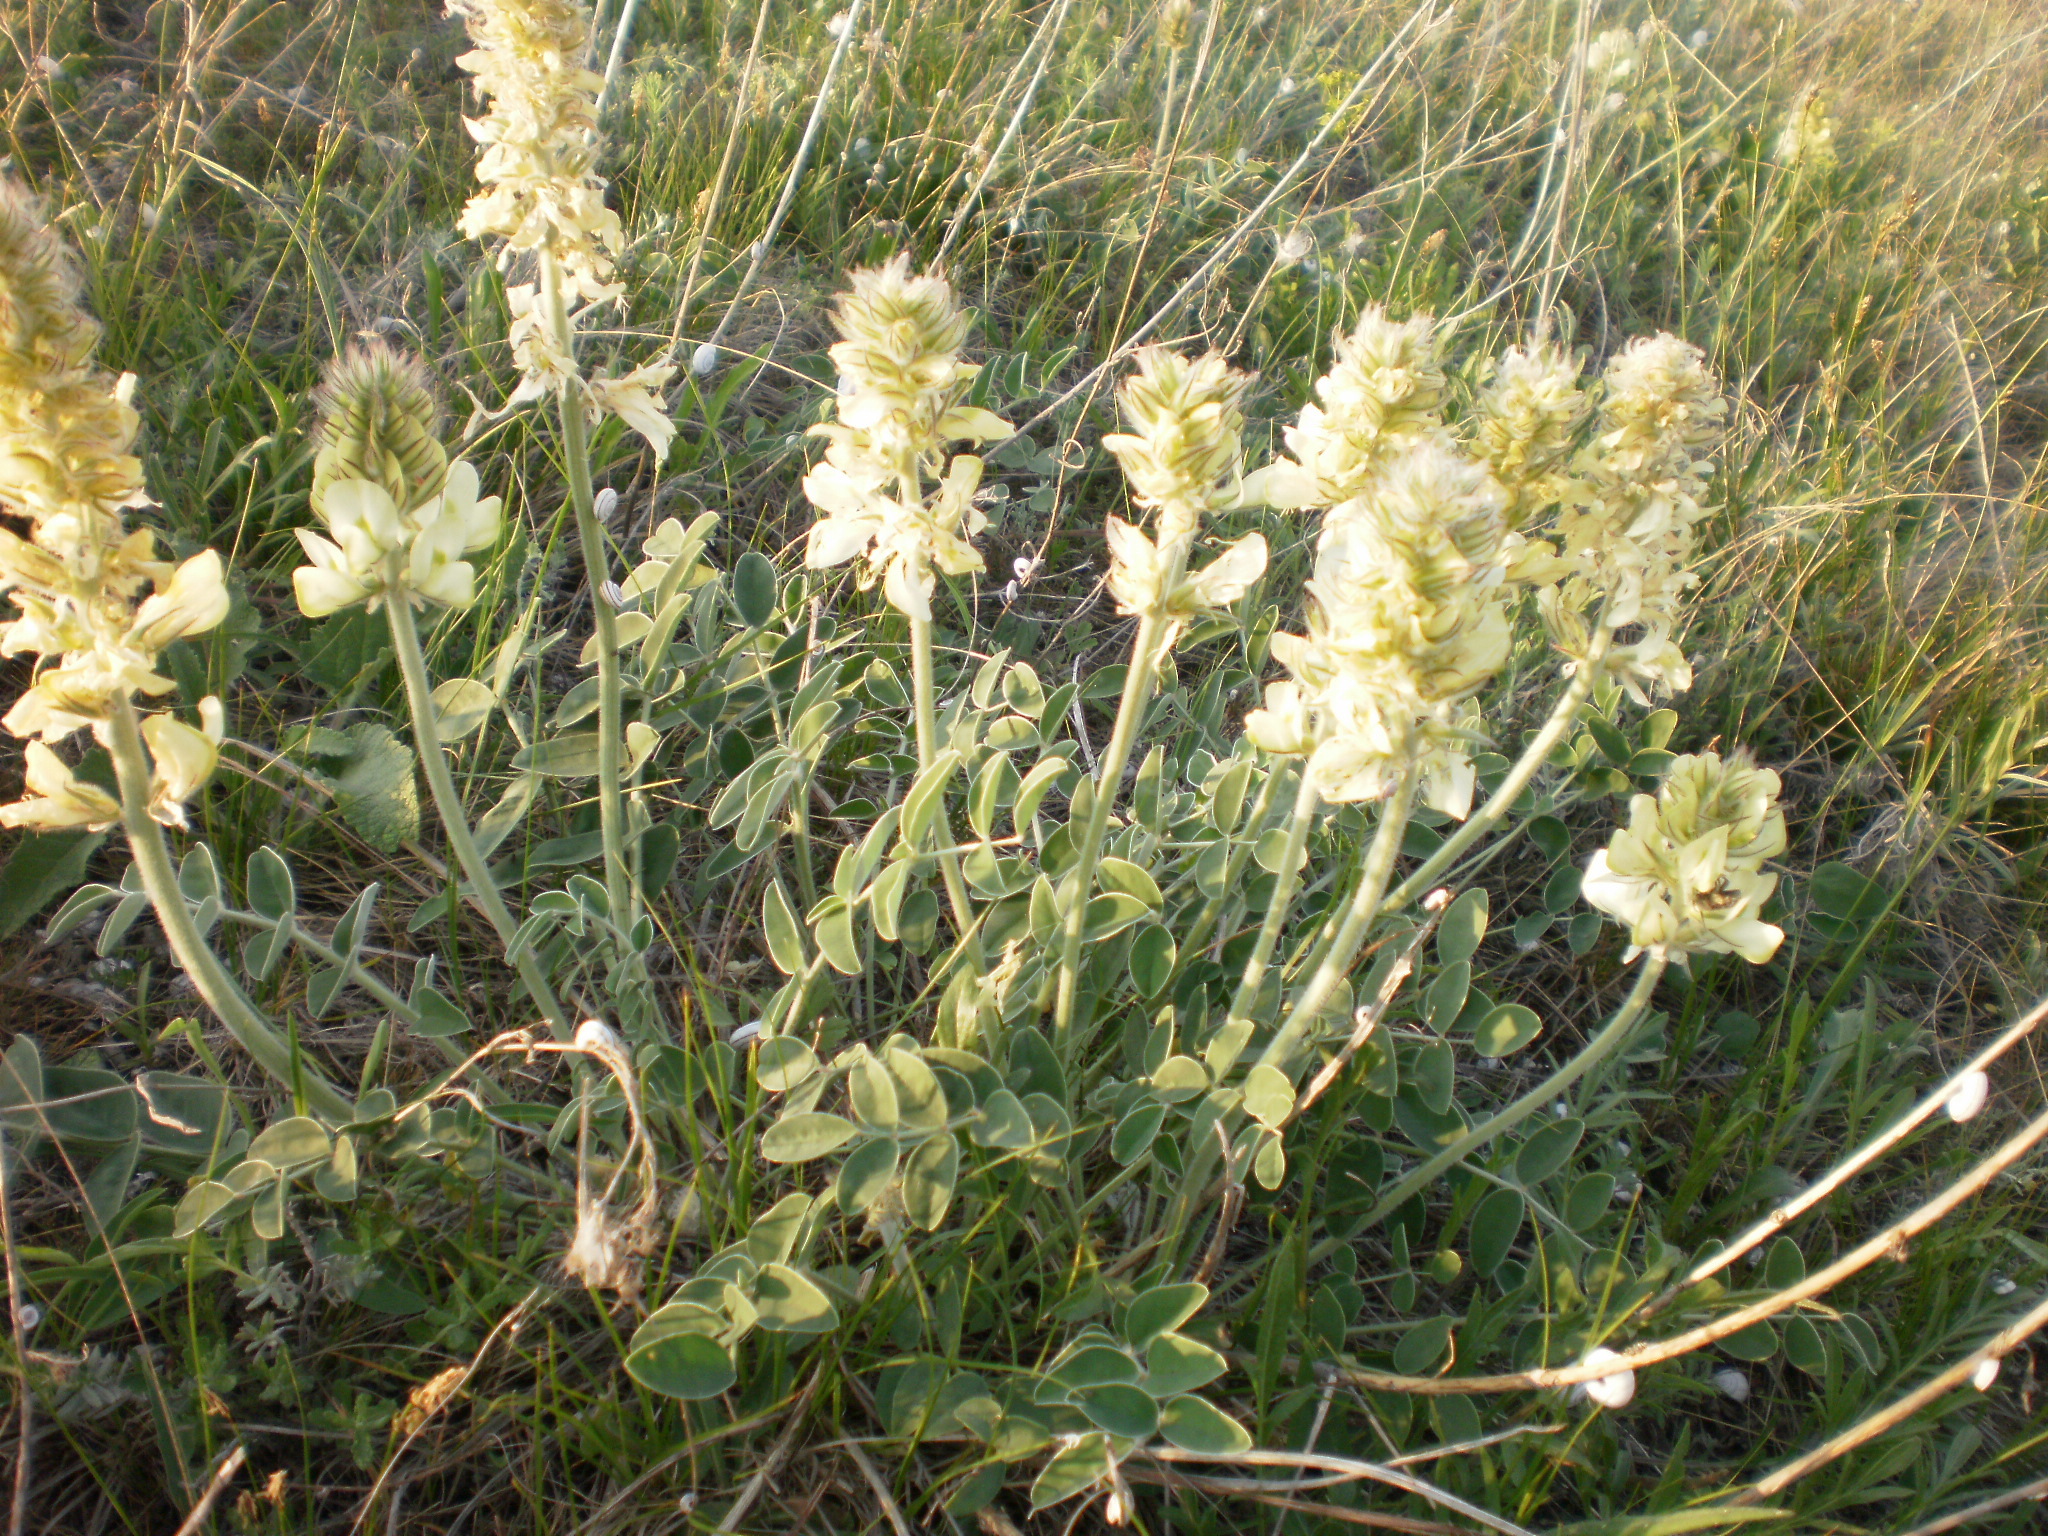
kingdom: Plantae
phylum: Tracheophyta
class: Magnoliopsida
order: Fabales
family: Fabaceae
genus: Hedysarum
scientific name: Hedysarum grandiflorum
